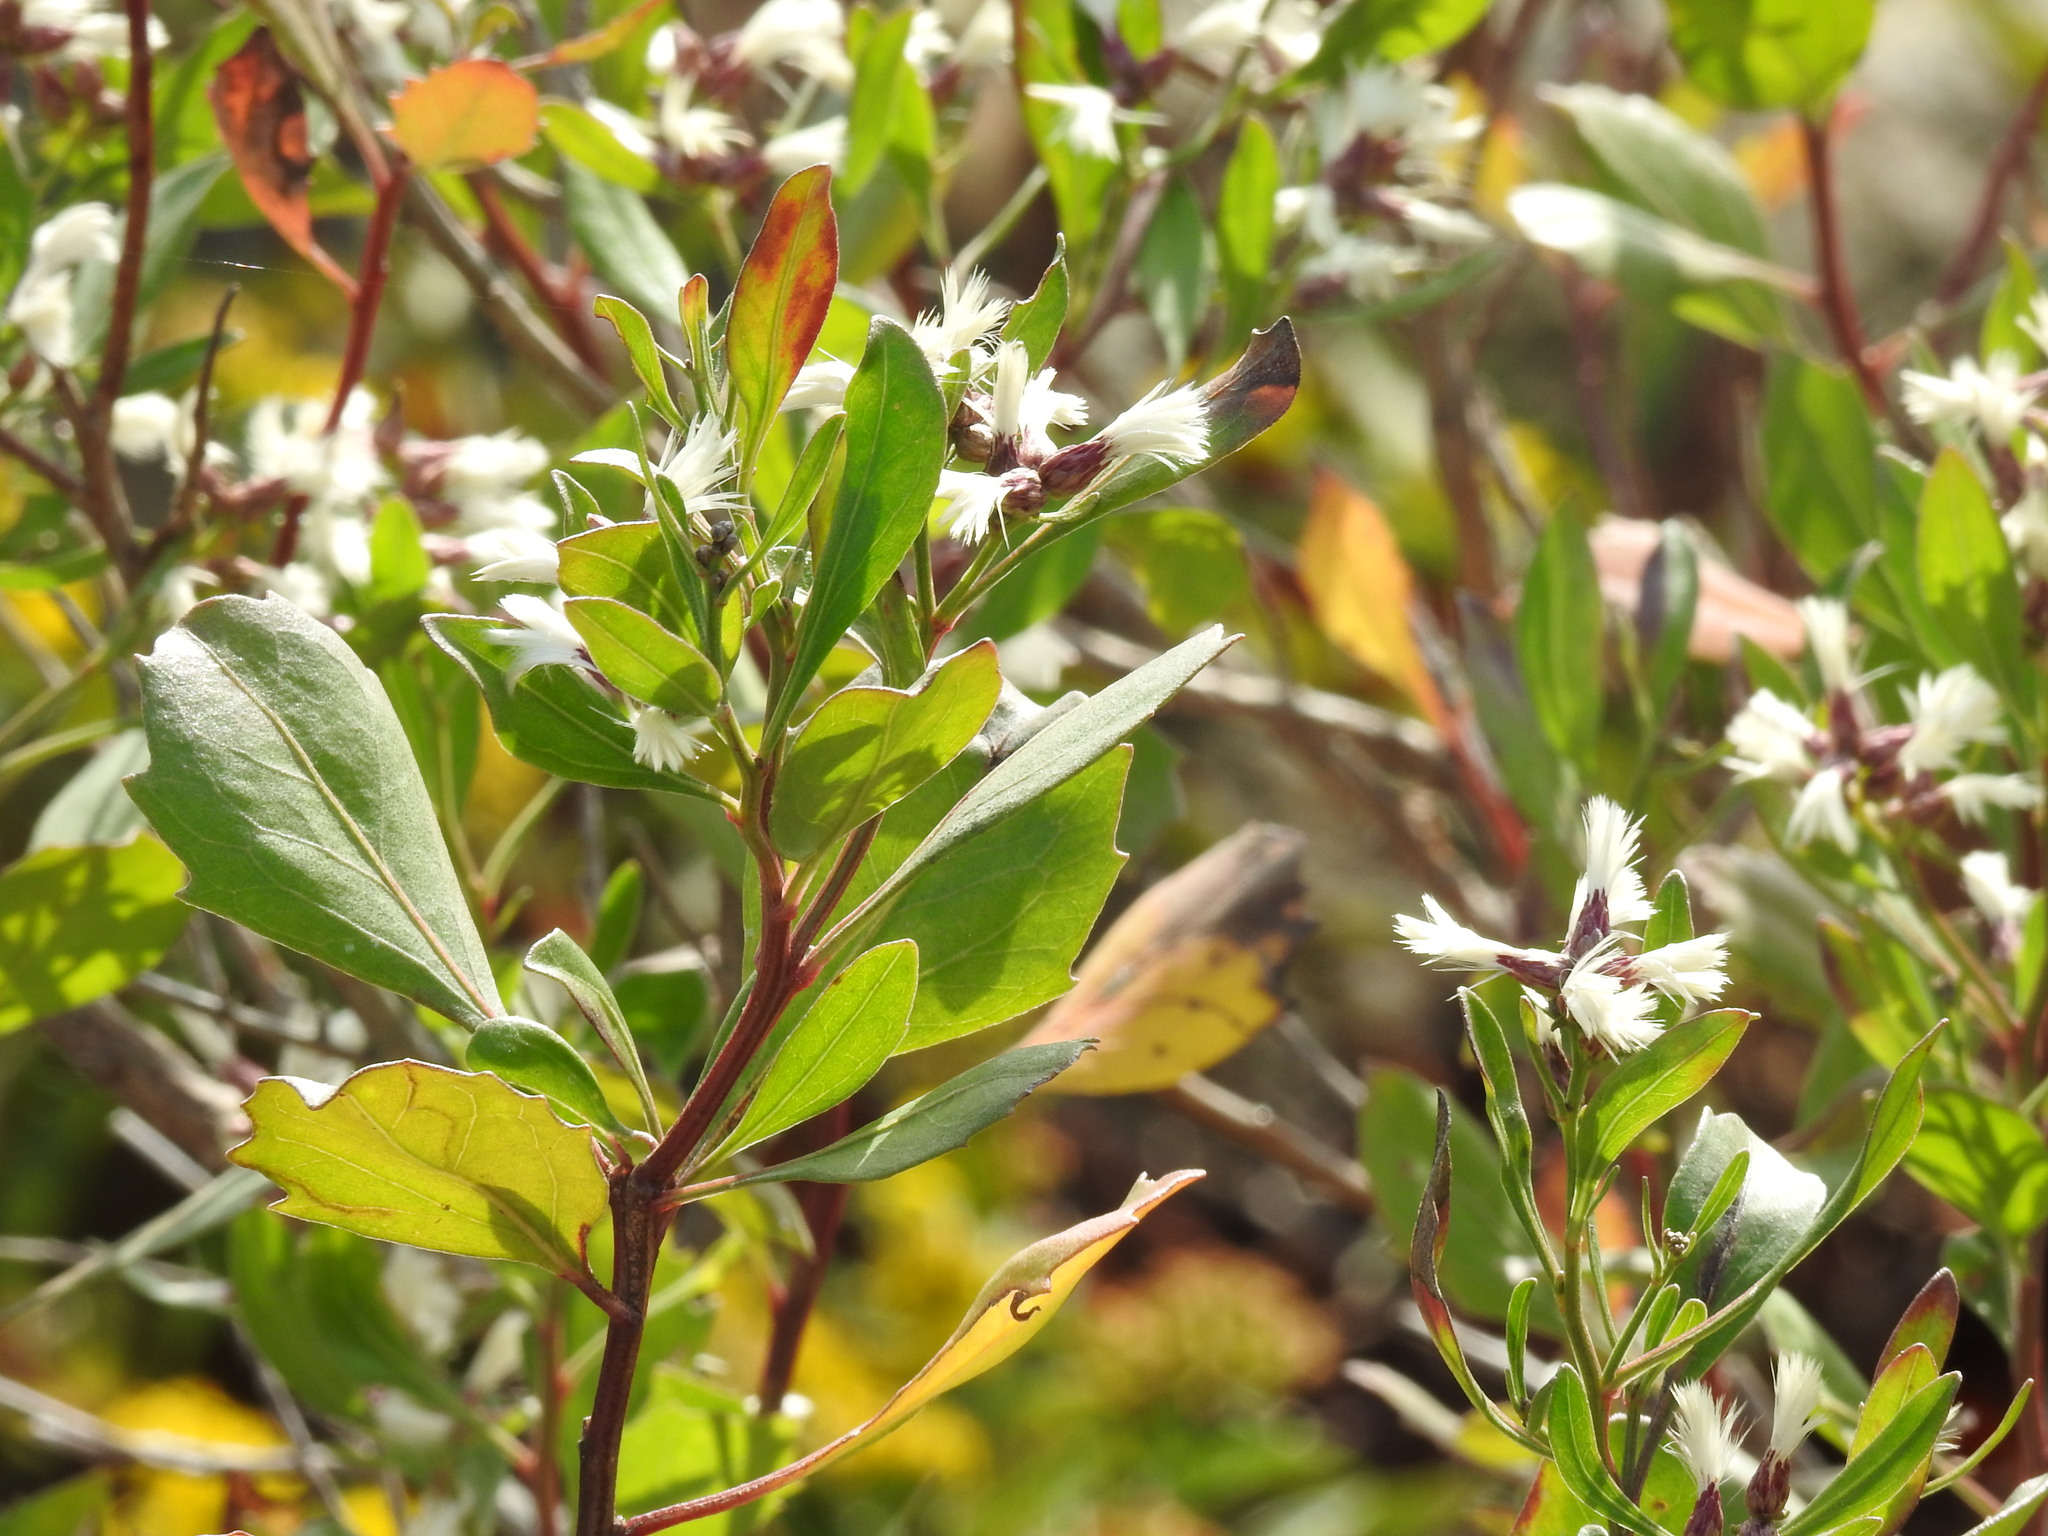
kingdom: Plantae
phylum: Tracheophyta
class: Magnoliopsida
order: Asterales
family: Asteraceae
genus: Baccharis
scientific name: Baccharis halimifolia
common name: Eastern baccharis
